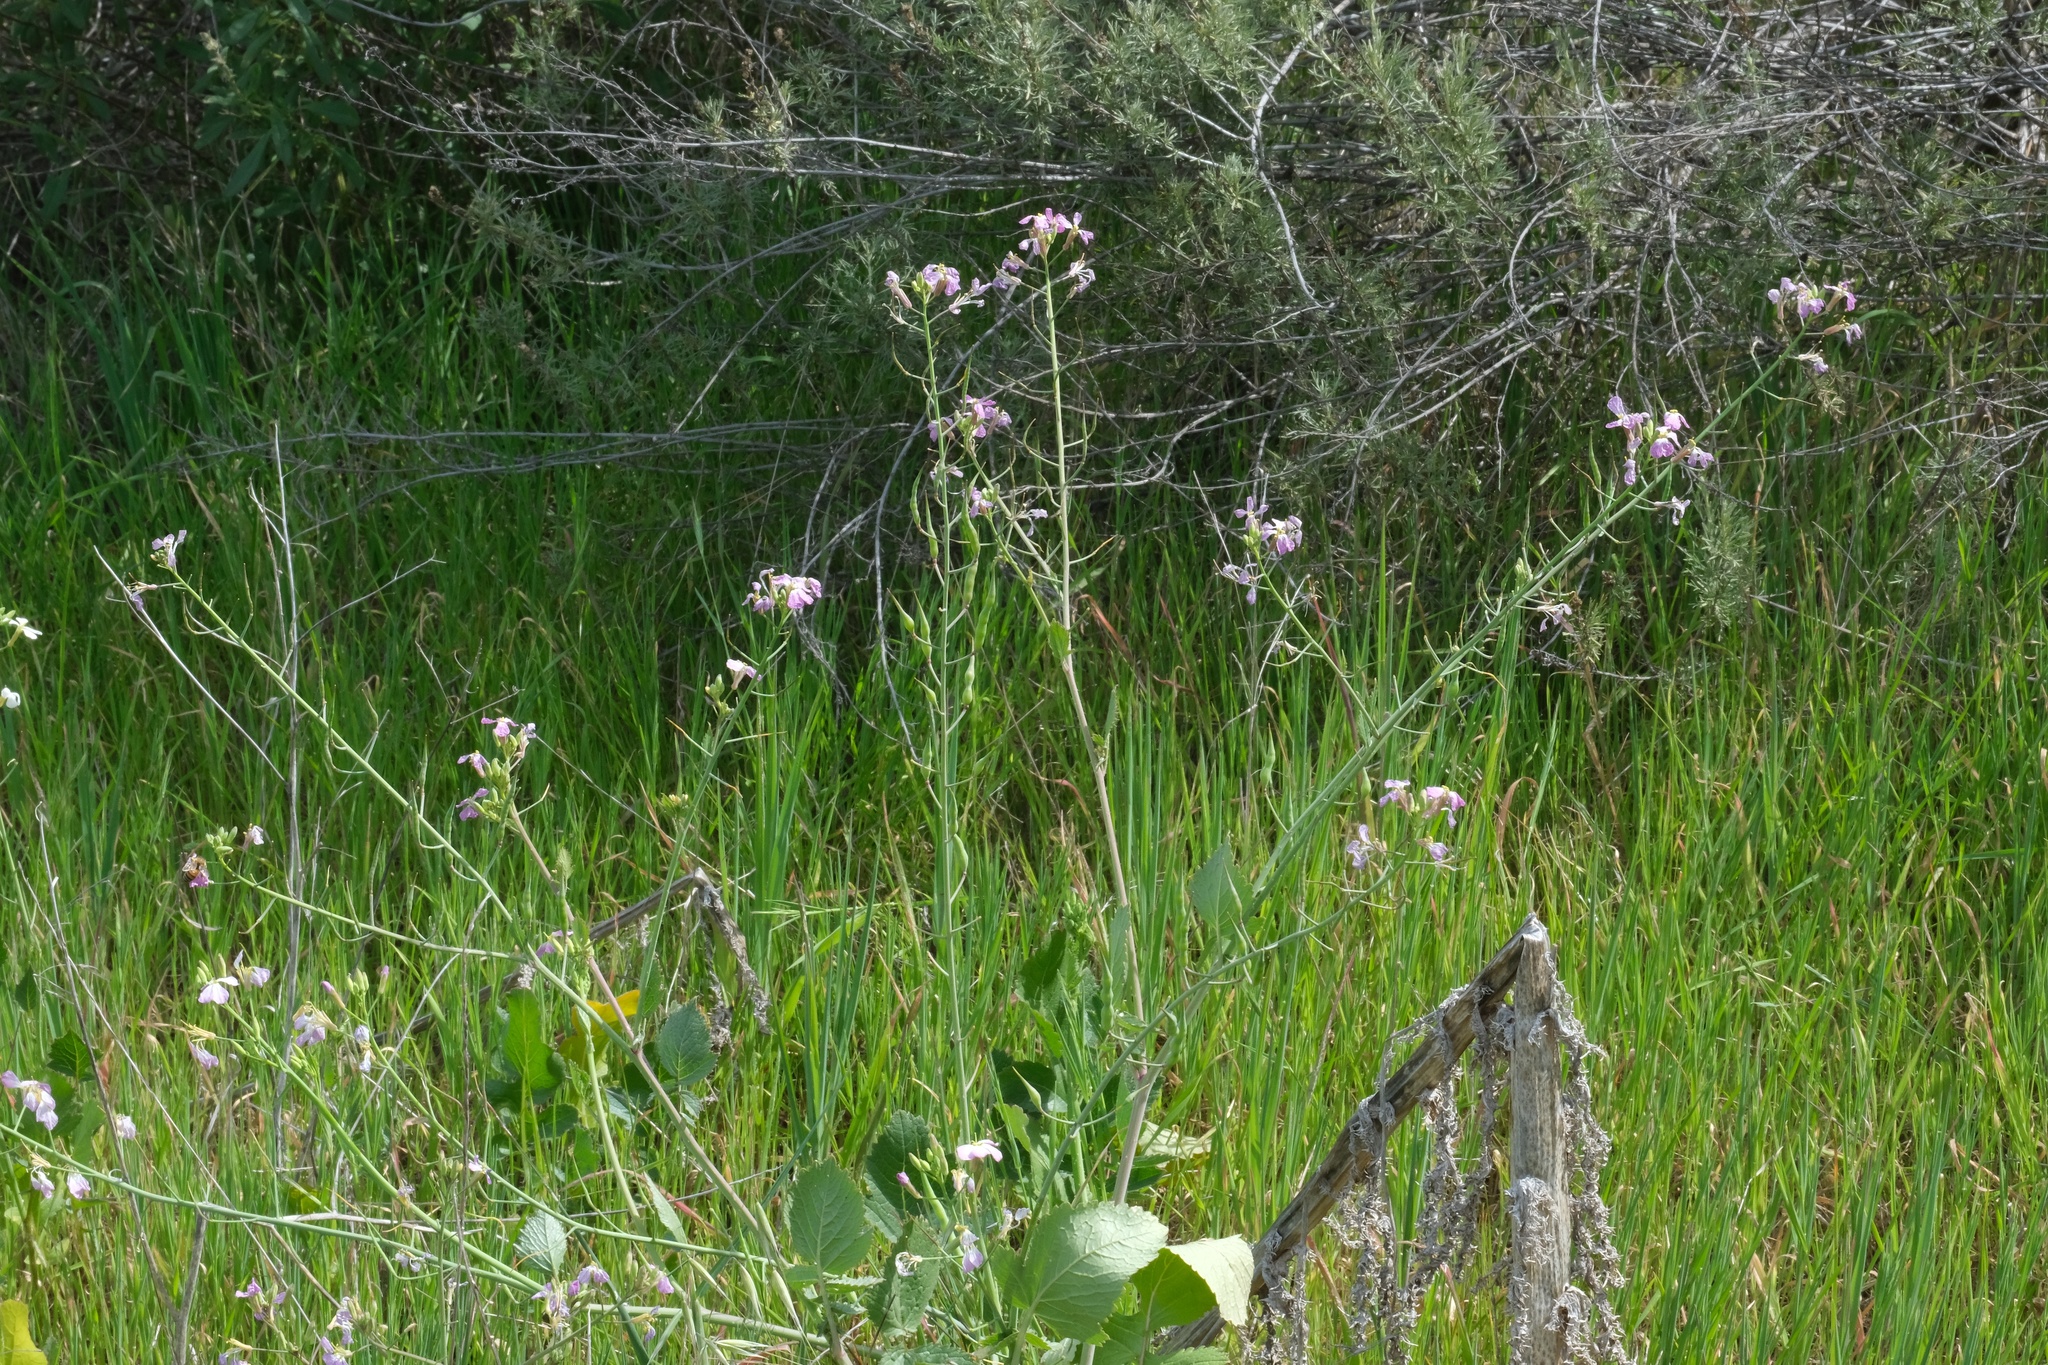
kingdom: Plantae
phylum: Tracheophyta
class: Magnoliopsida
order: Brassicales
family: Brassicaceae
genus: Raphanus
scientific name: Raphanus sativus
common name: Cultivated radish
